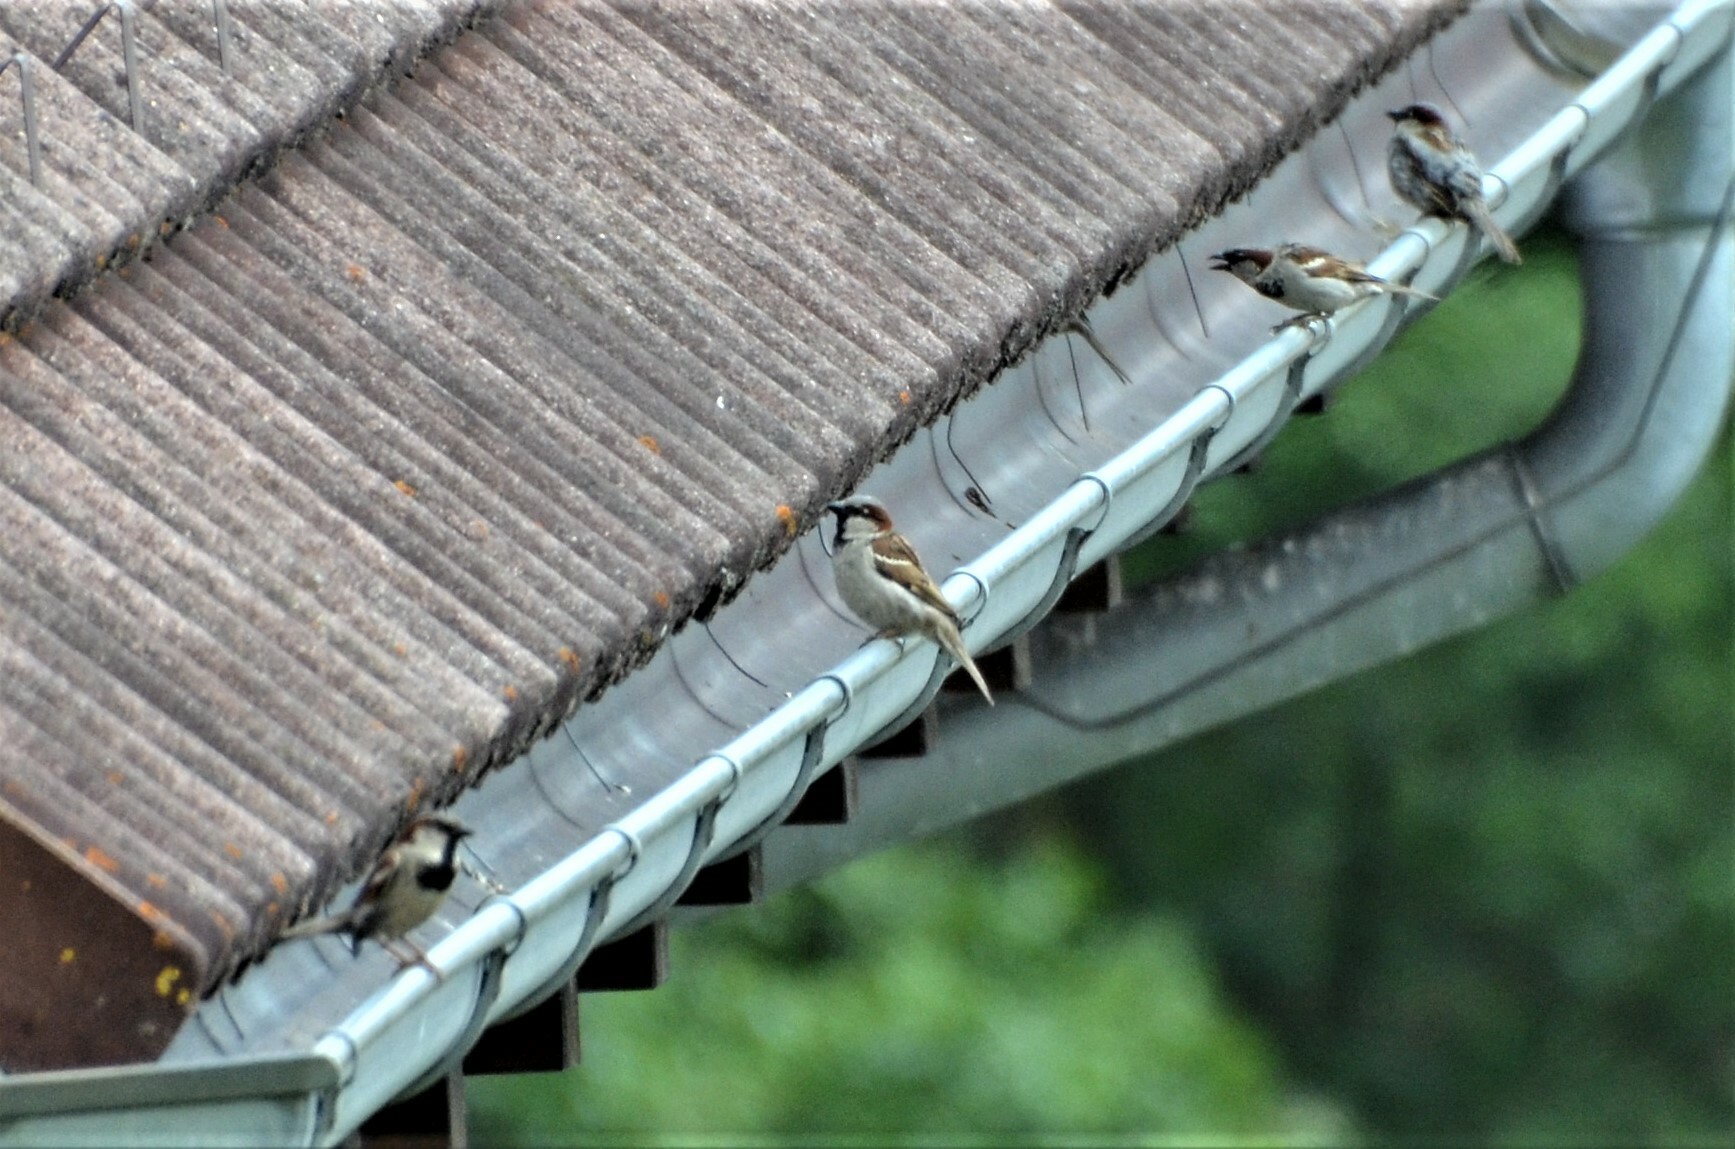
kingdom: Animalia
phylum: Chordata
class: Aves
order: Passeriformes
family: Passeridae
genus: Passer
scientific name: Passer domesticus
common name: House sparrow
